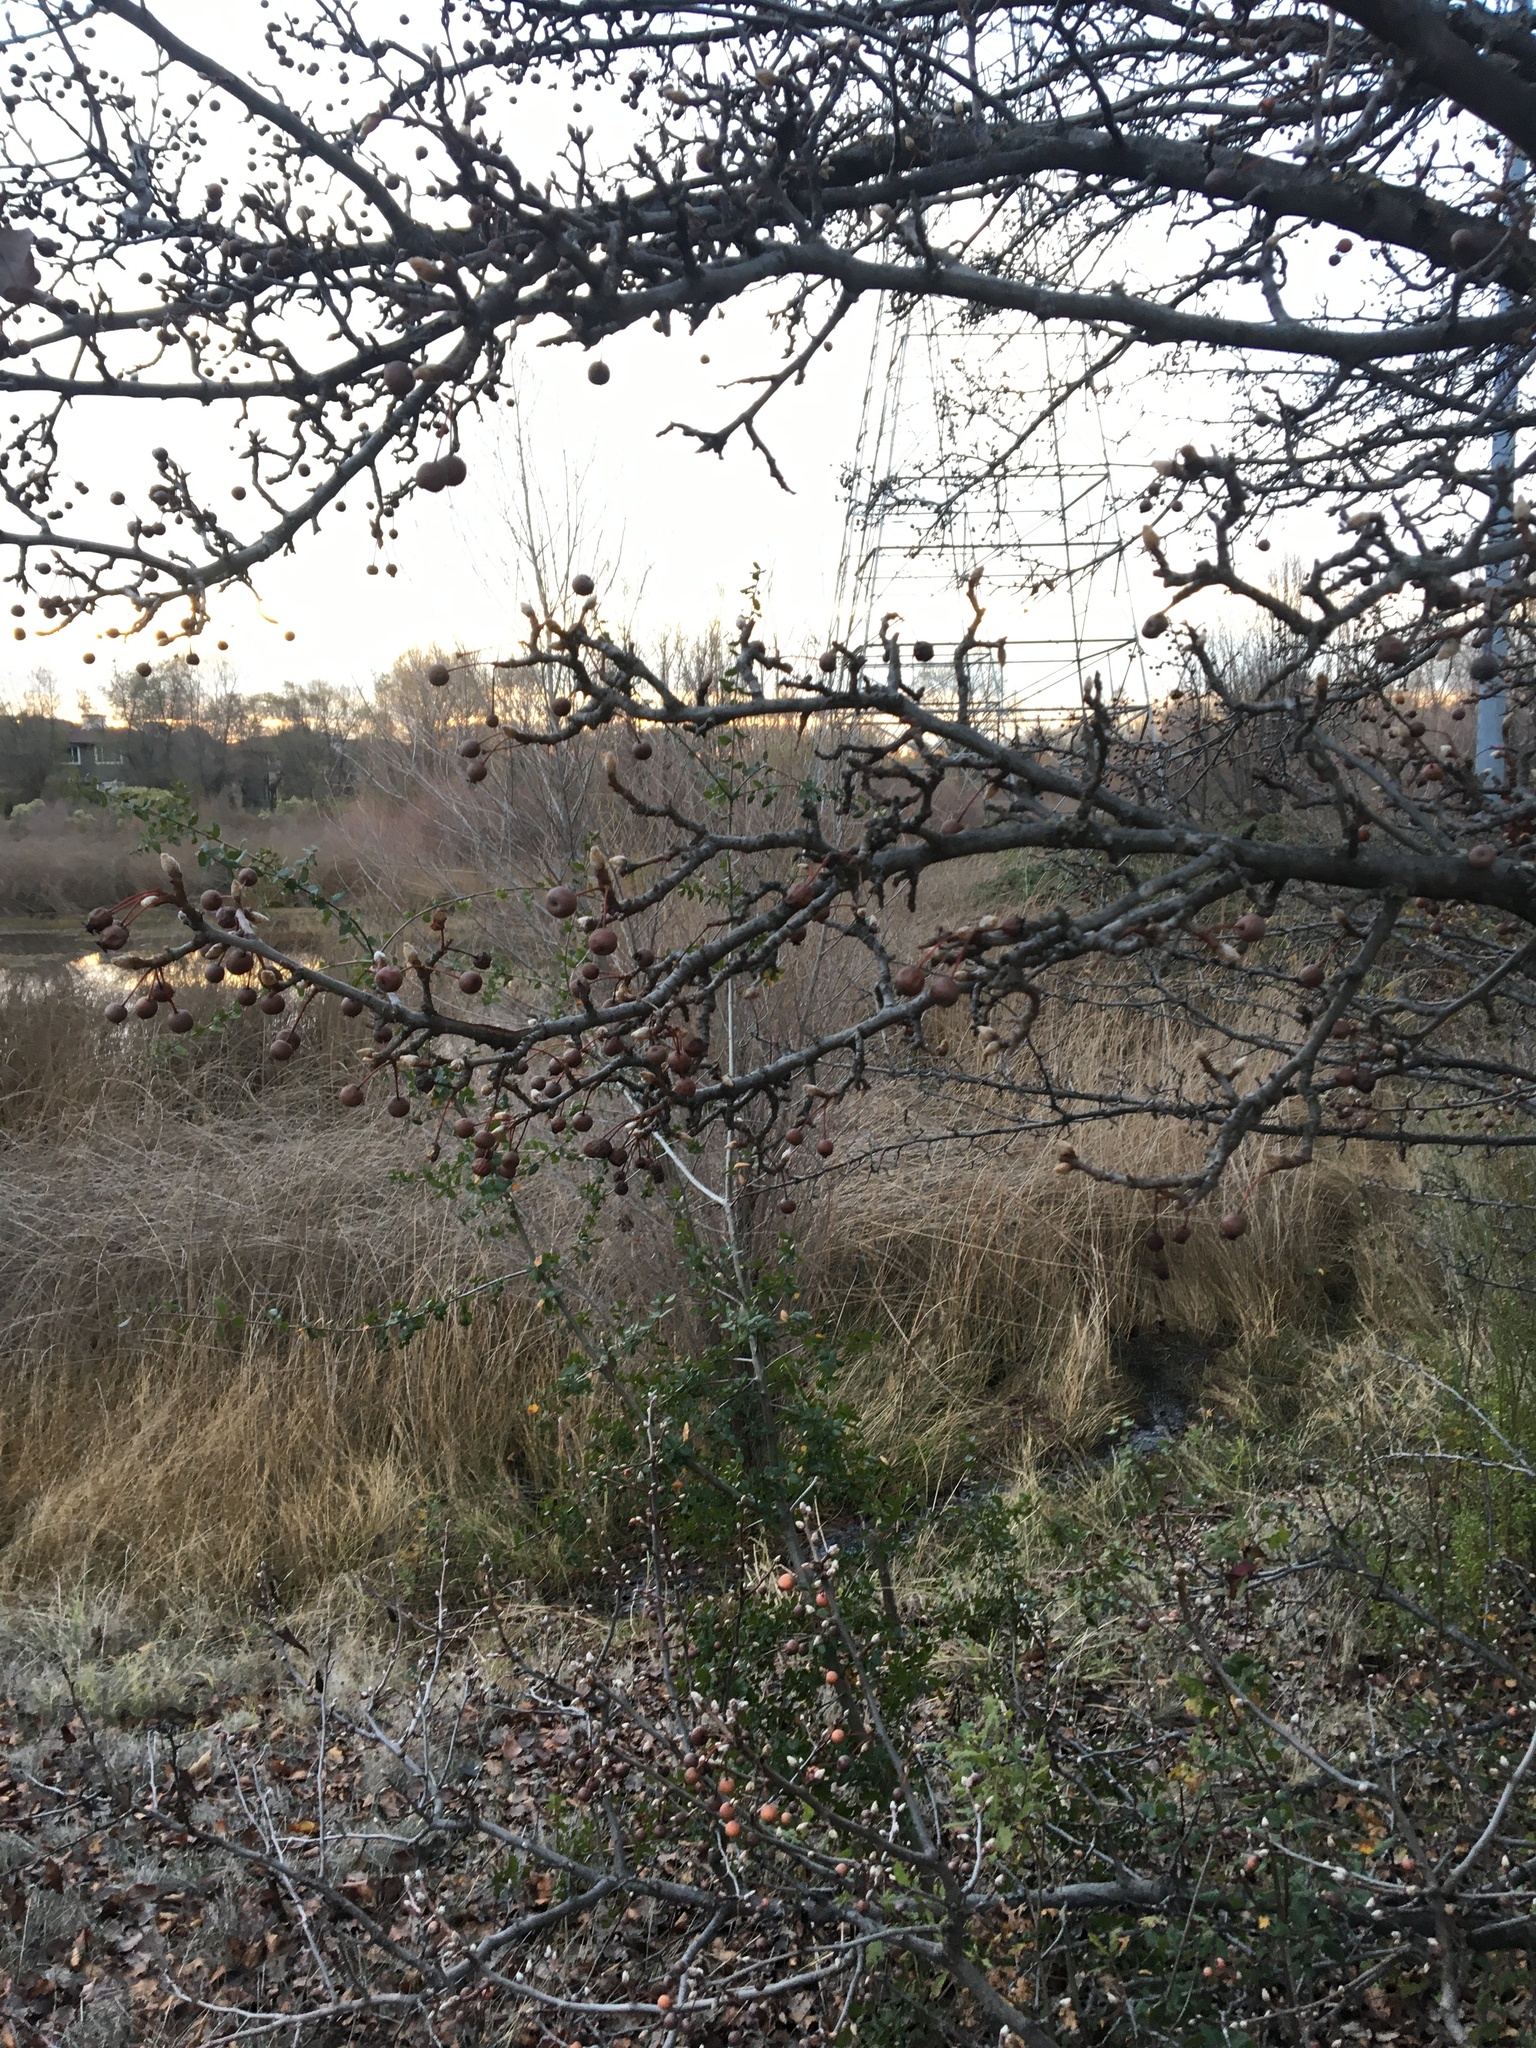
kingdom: Plantae
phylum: Tracheophyta
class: Magnoliopsida
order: Rosales
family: Rosaceae
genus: Pyrus
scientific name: Pyrus calleryana
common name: Callery pear
